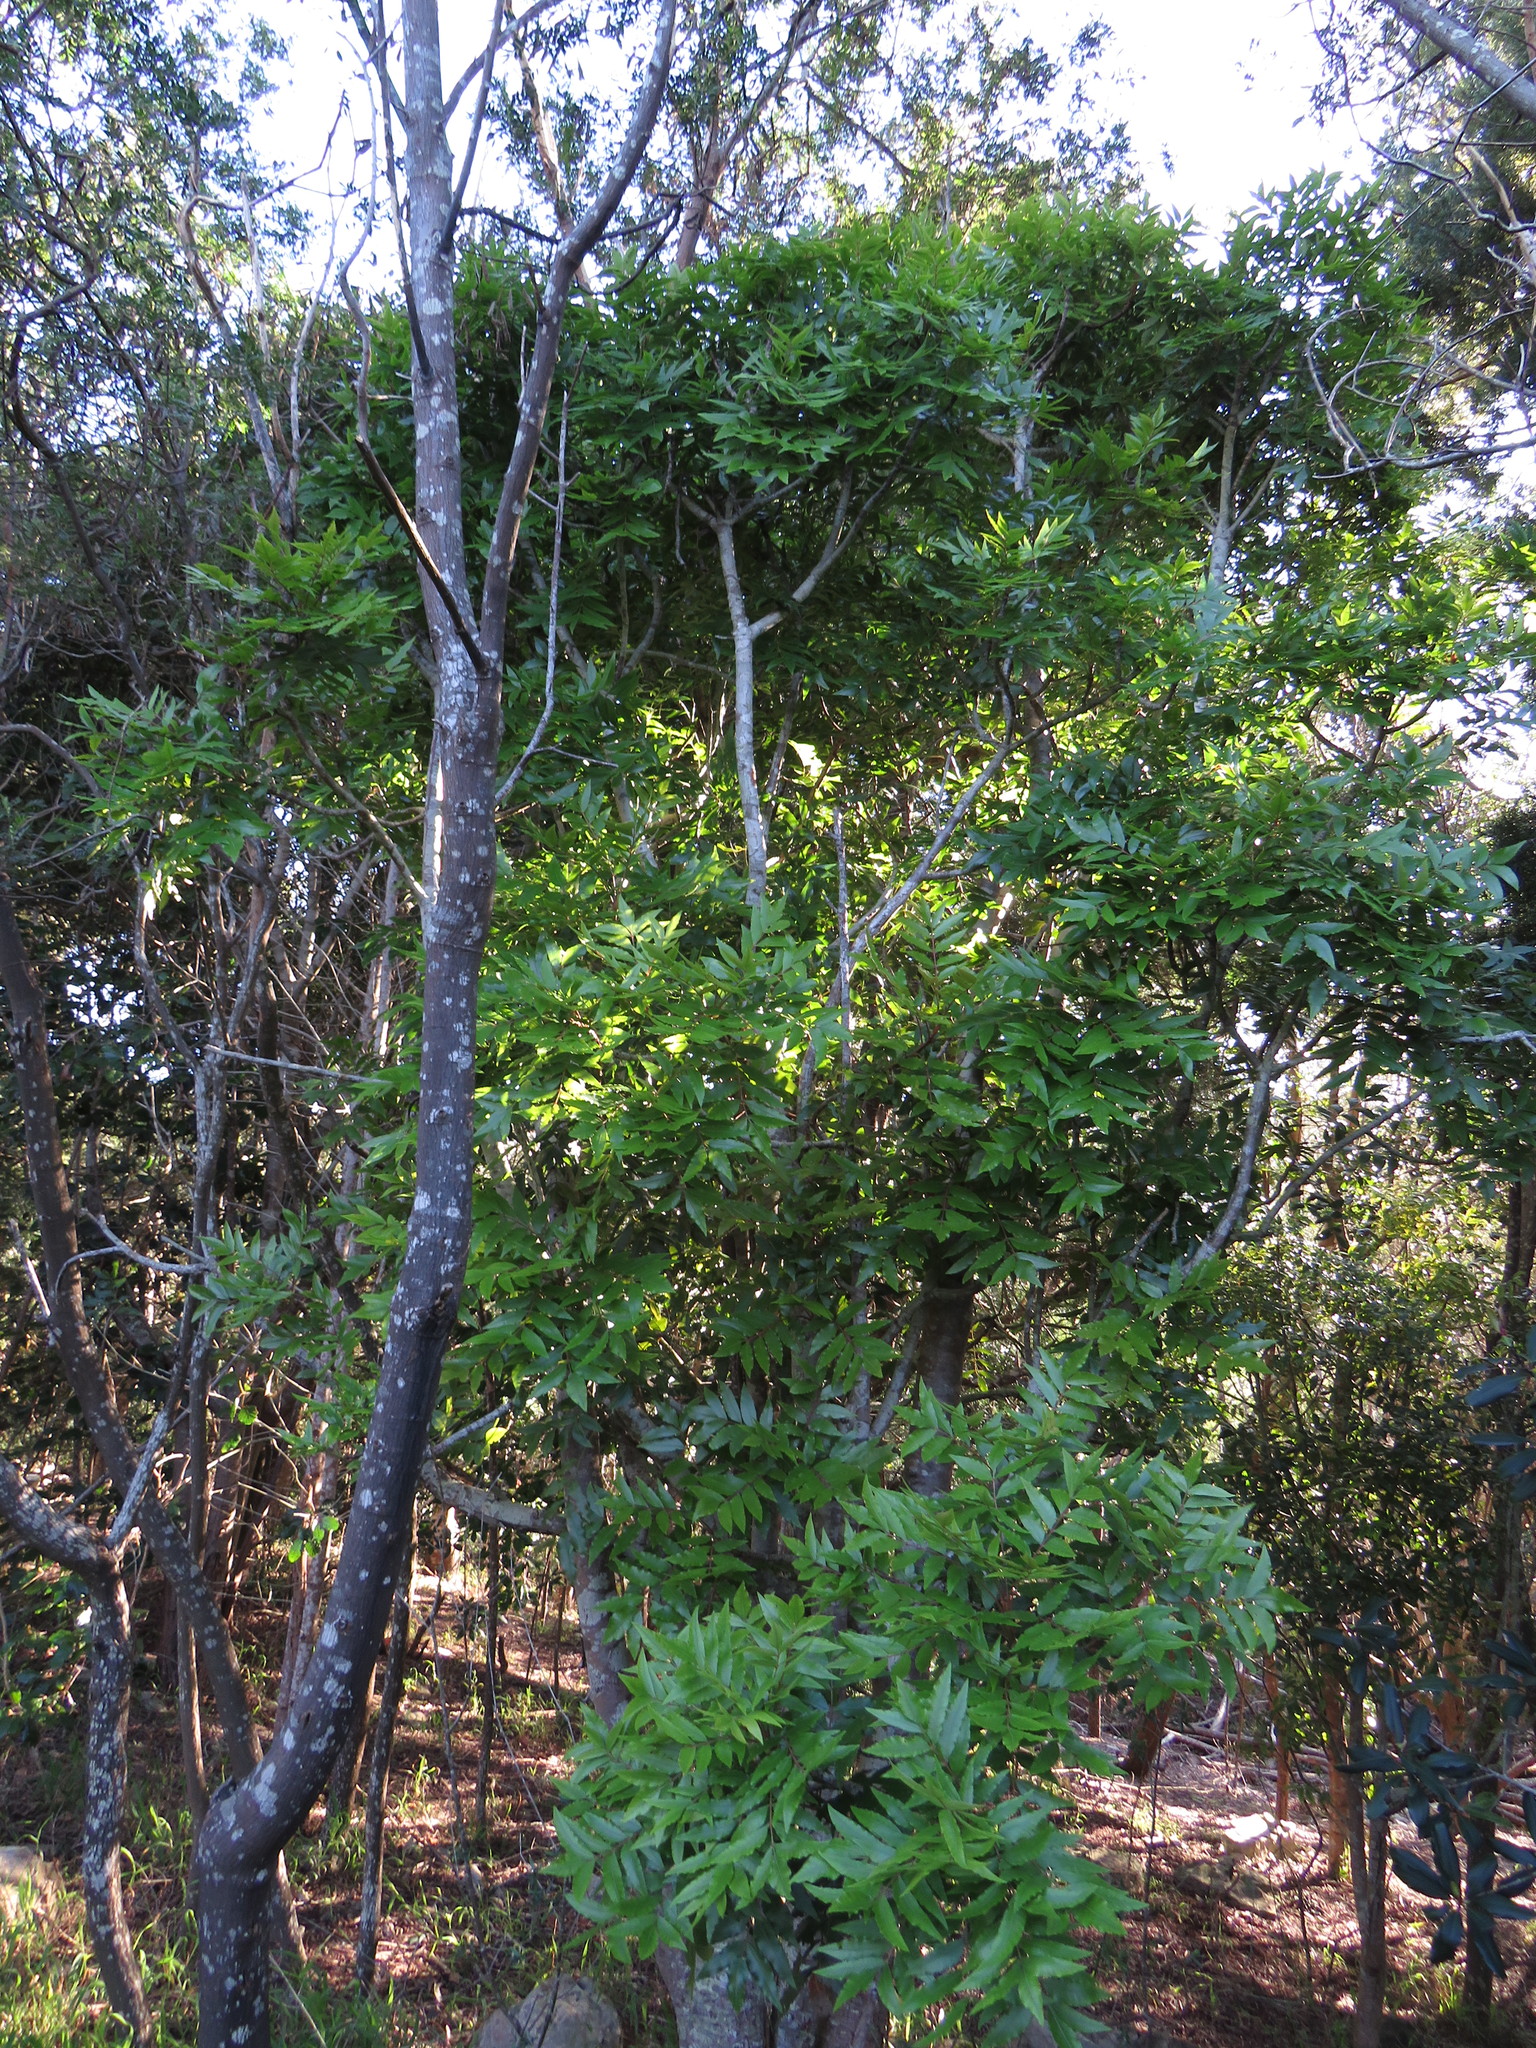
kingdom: Plantae
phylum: Tracheophyta
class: Magnoliopsida
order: Sapindales
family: Anacardiaceae
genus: Harpephyllum
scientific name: Harpephyllum caffrum
